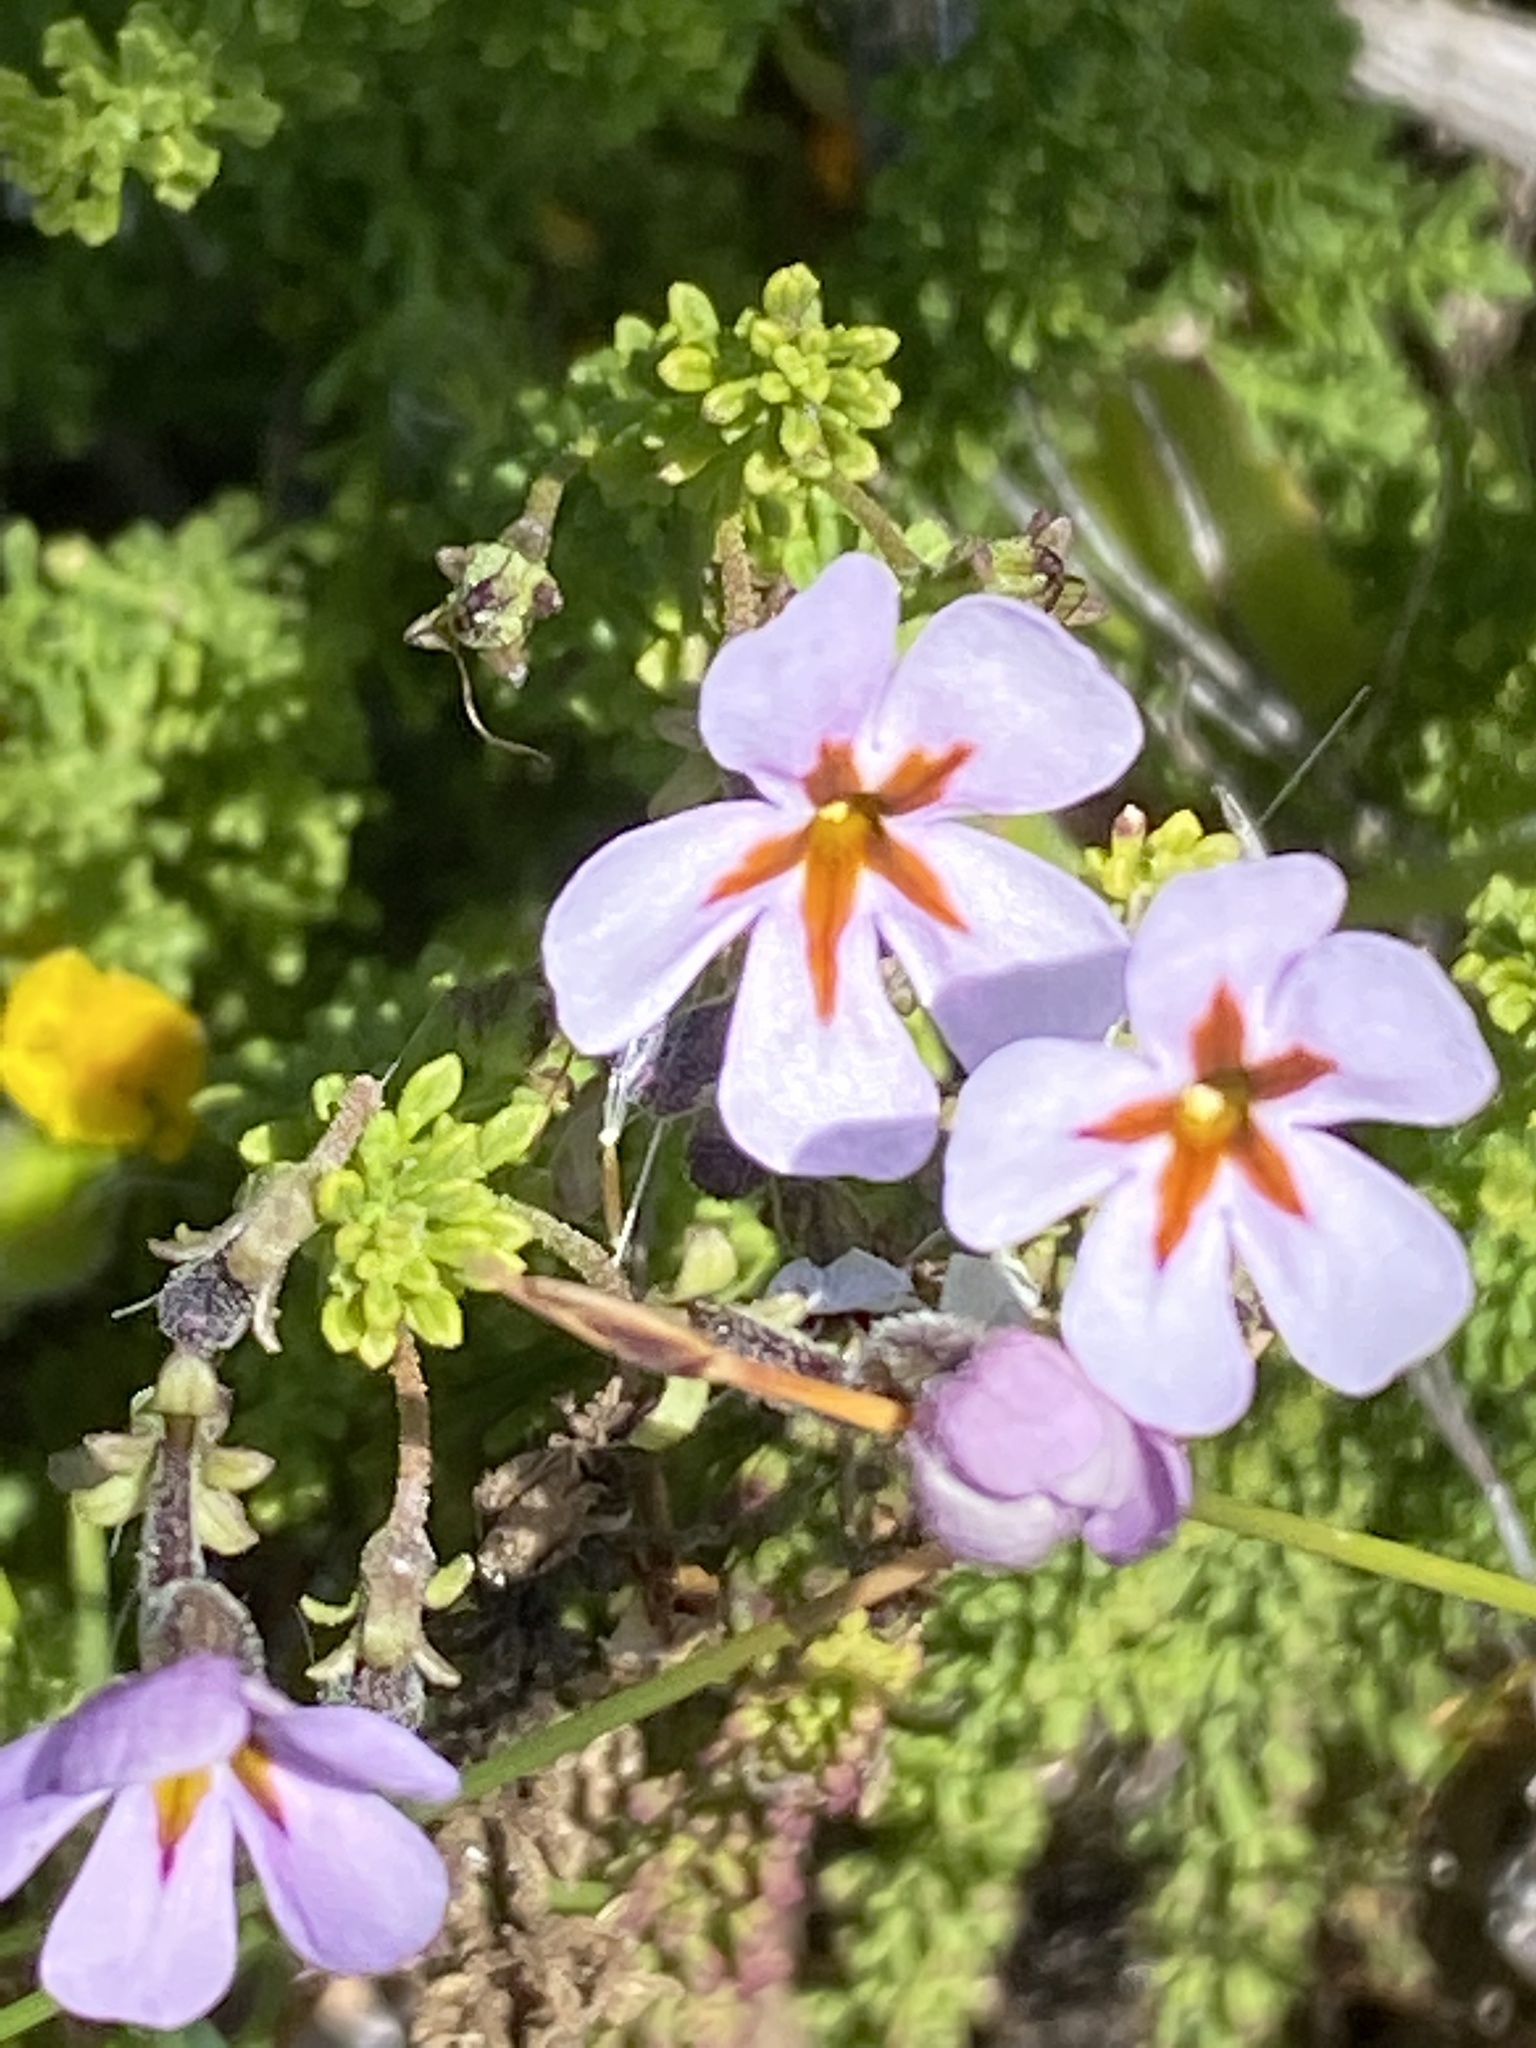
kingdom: Plantae
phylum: Tracheophyta
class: Magnoliopsida
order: Lamiales
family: Scrophulariaceae
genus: Jamesbrittenia
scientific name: Jamesbrittenia stellata
